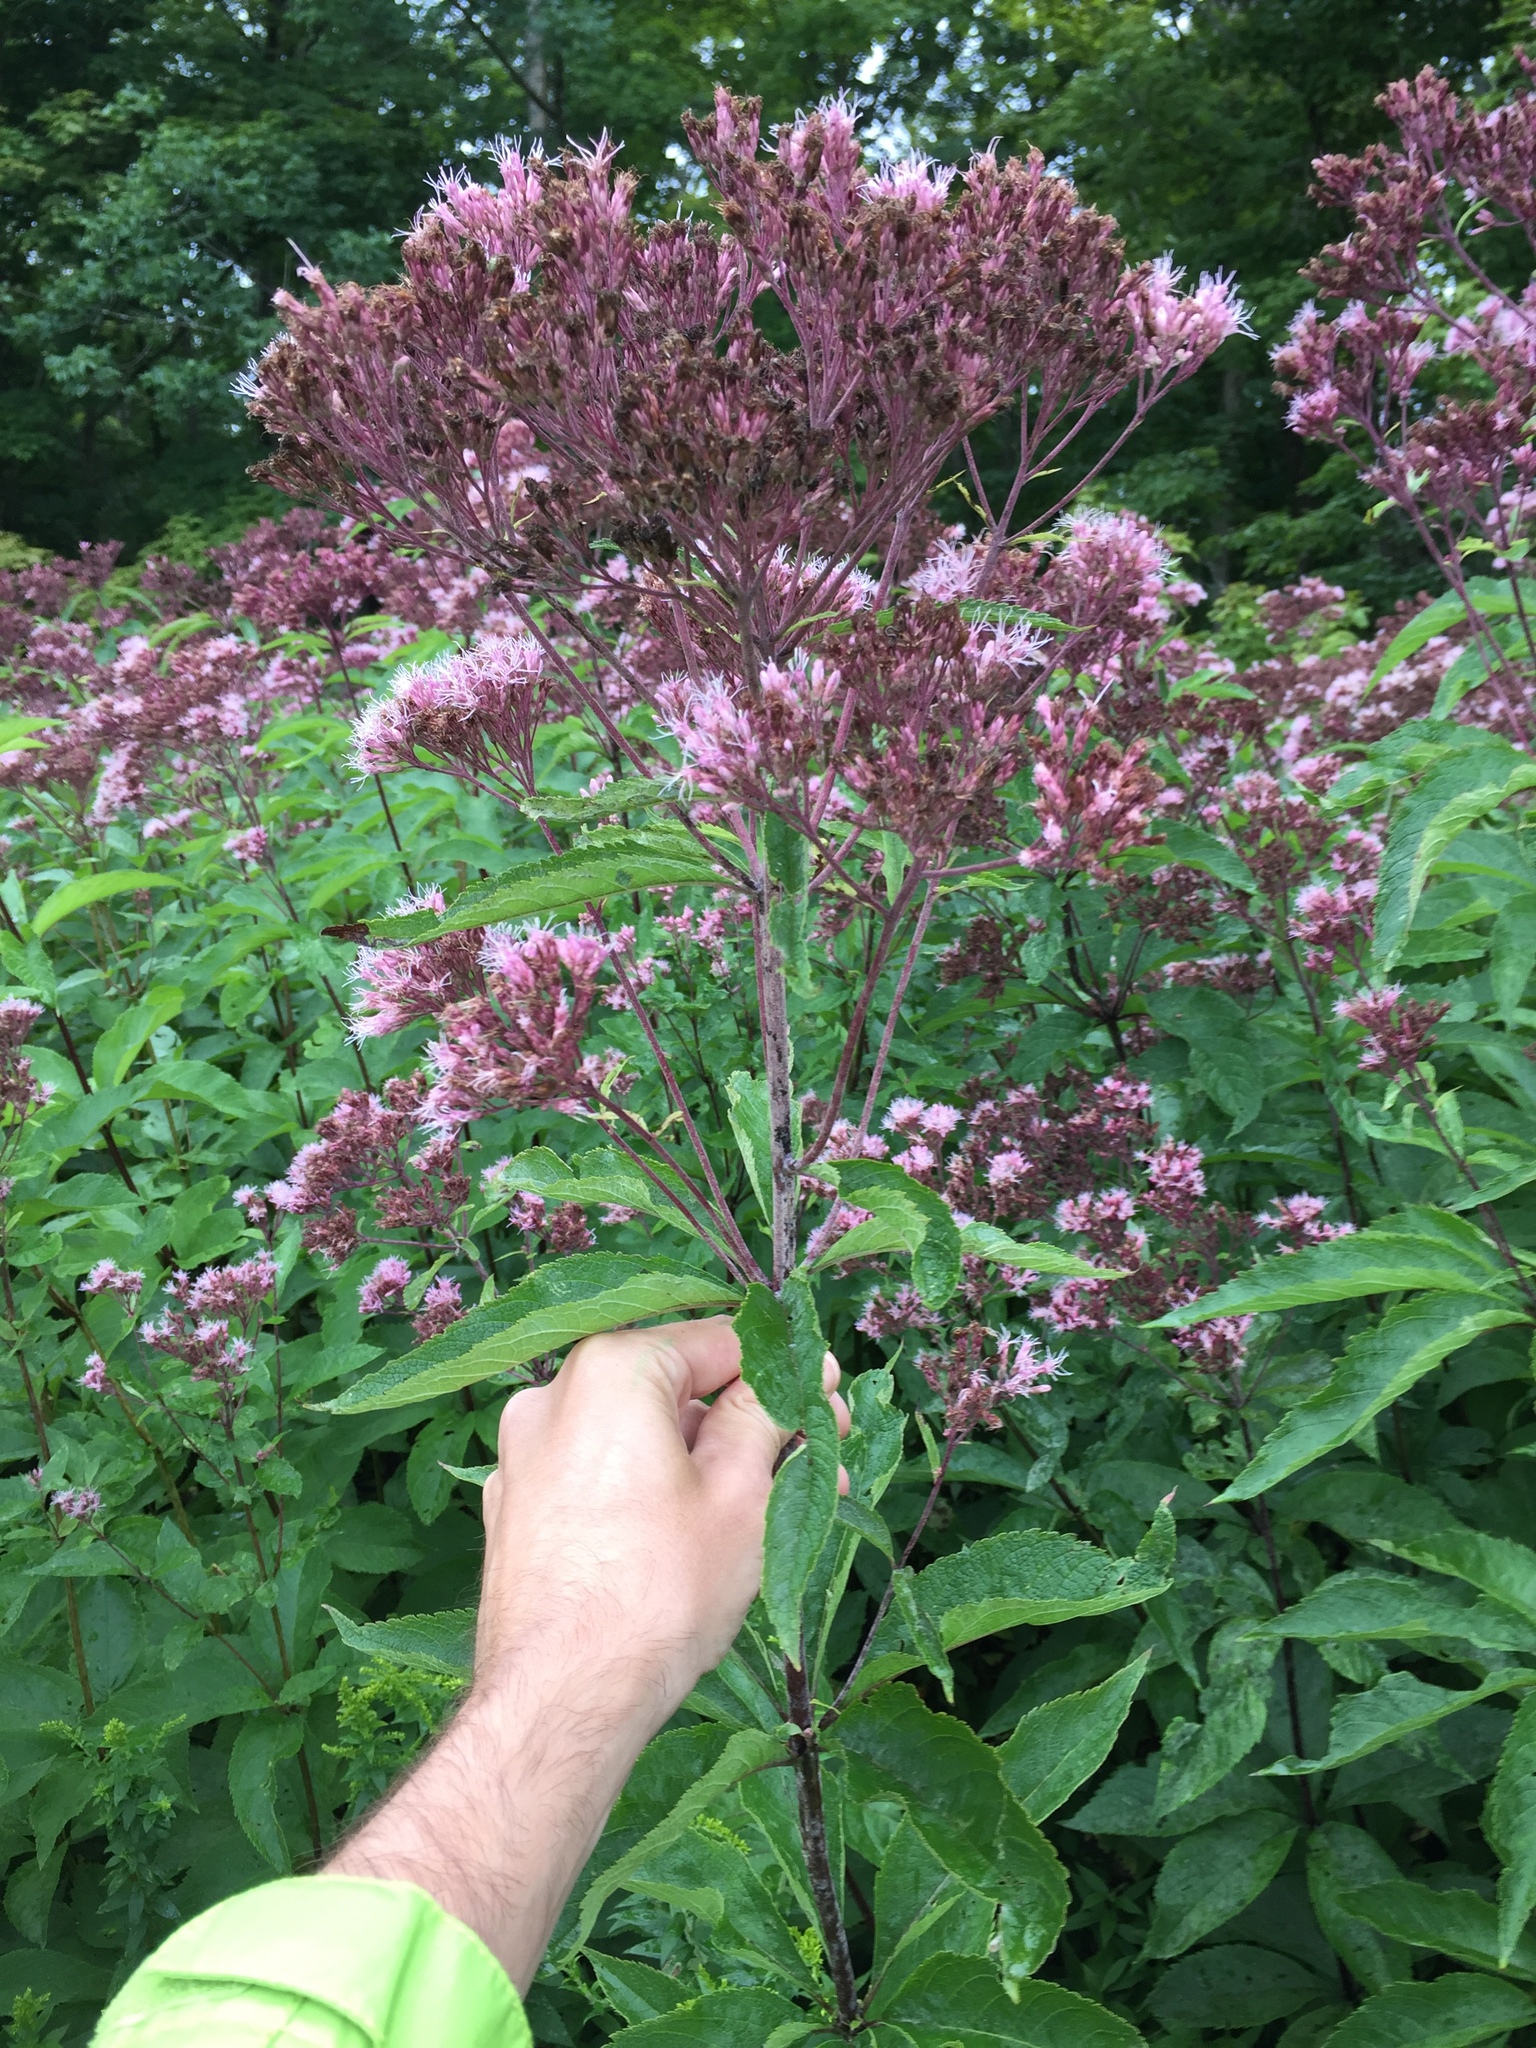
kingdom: Plantae
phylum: Tracheophyta
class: Magnoliopsida
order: Asterales
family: Asteraceae
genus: Eutrochium
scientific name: Eutrochium maculatum
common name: Spotted joe pye weed
